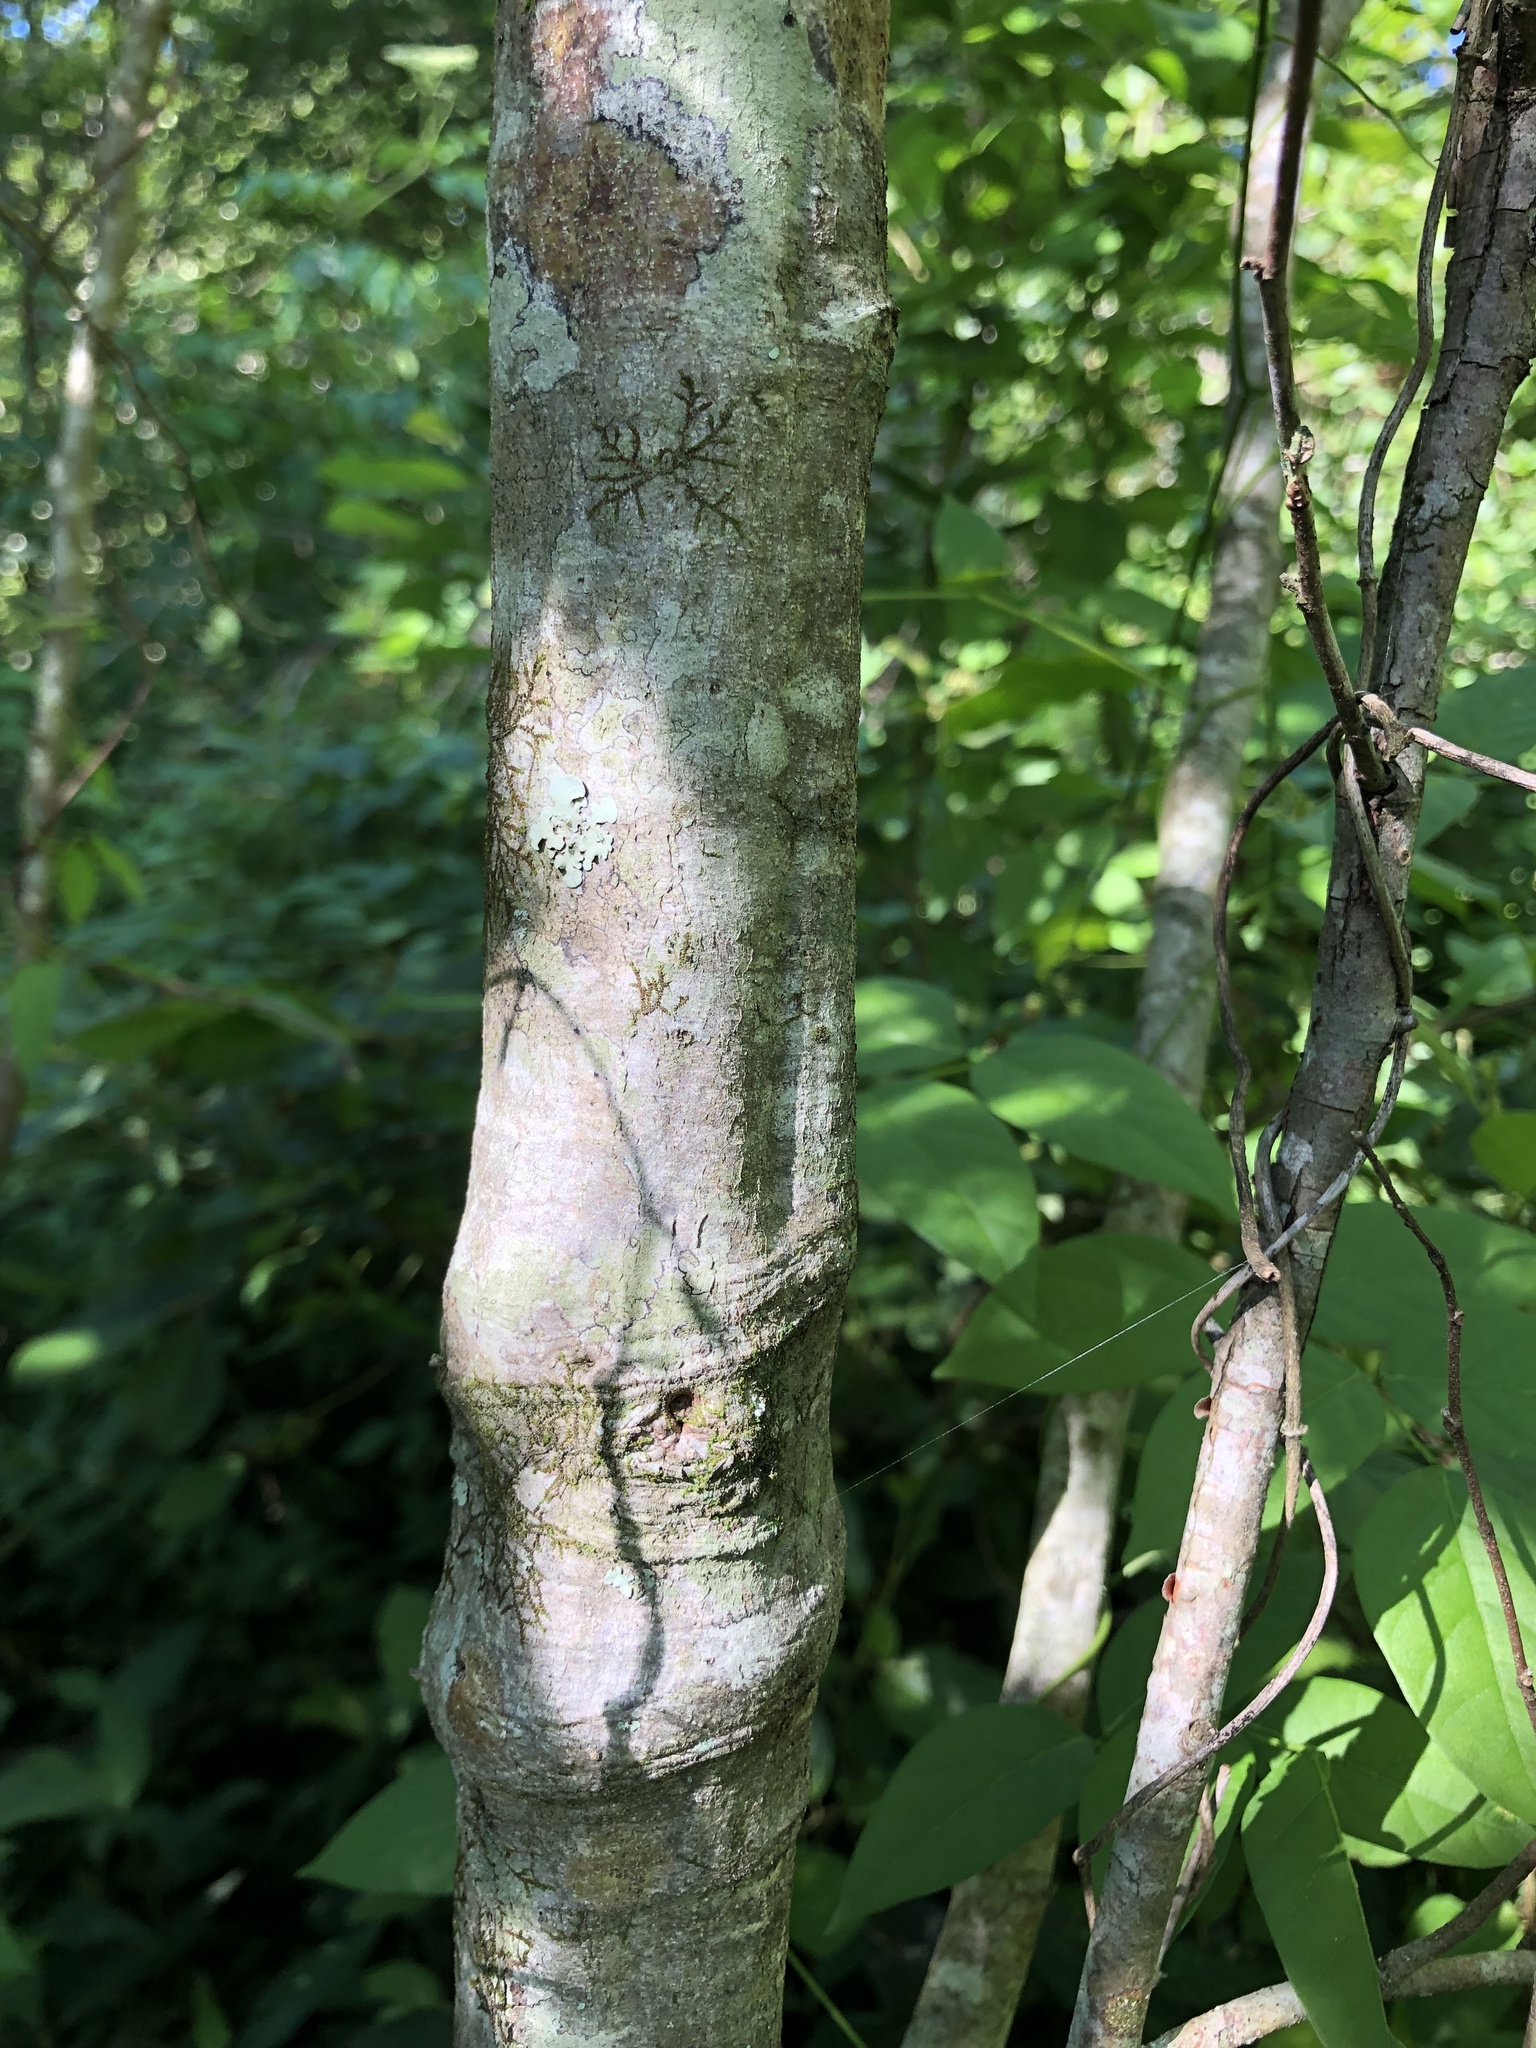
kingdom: Plantae
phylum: Tracheophyta
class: Magnoliopsida
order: Fagales
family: Betulaceae
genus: Alnus
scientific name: Alnus serrulata
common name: Hazel alder
